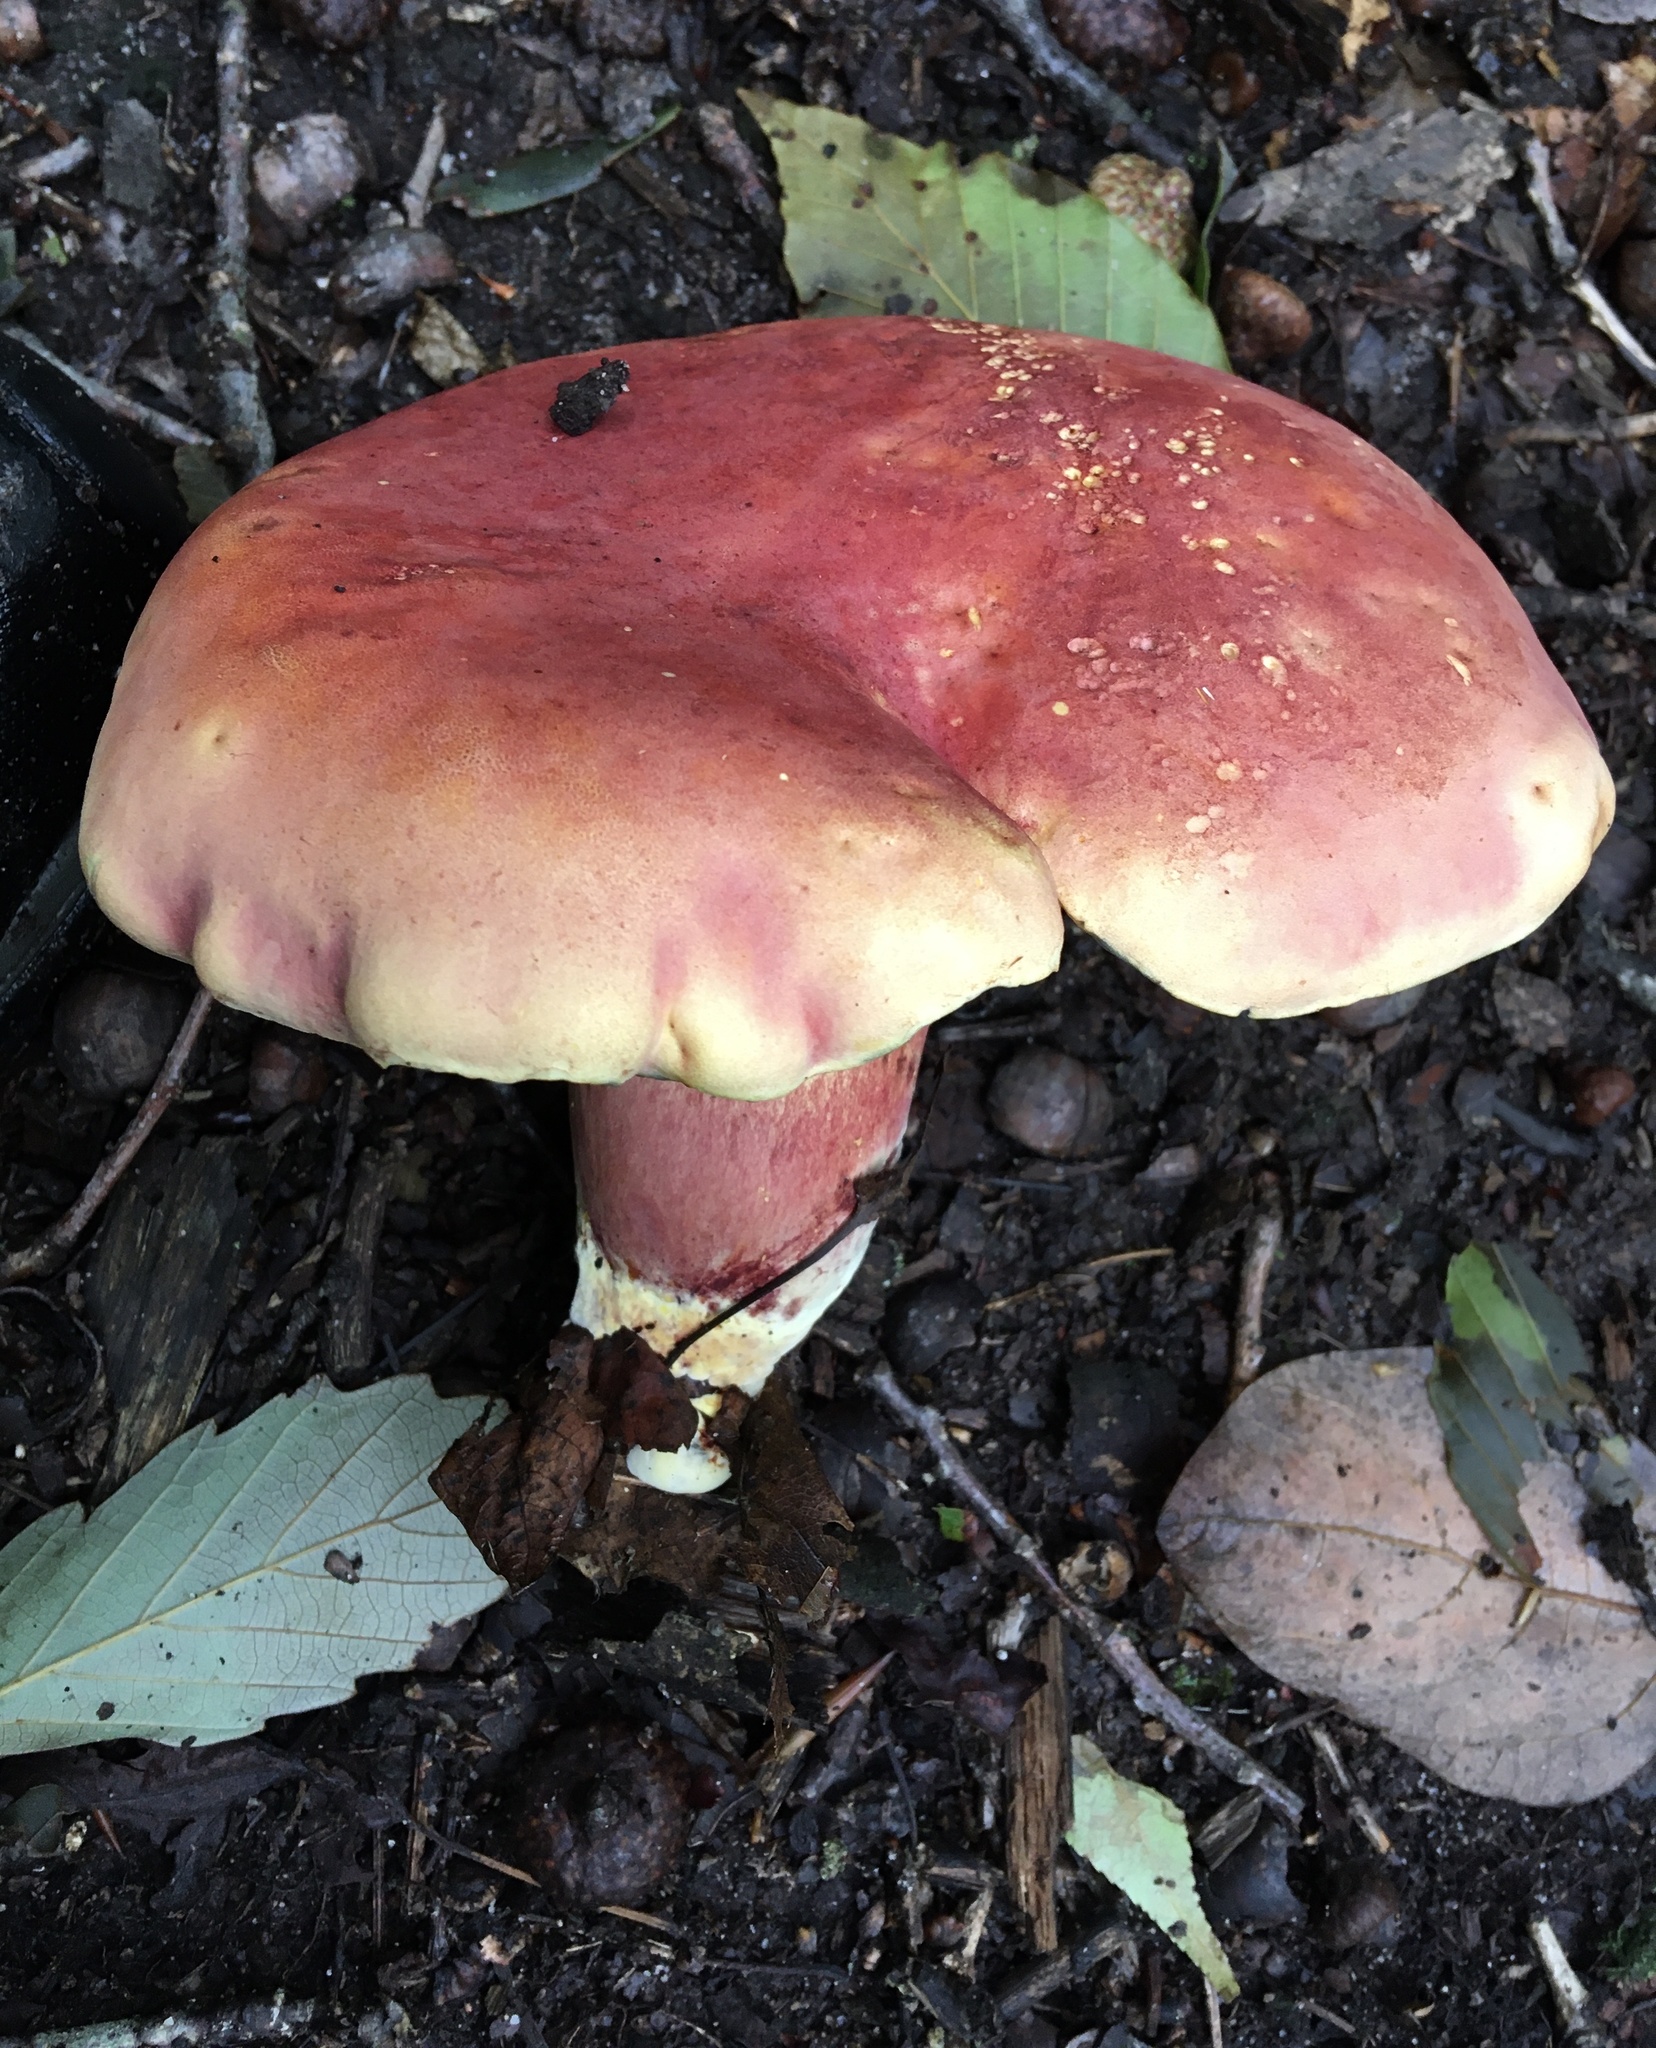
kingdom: Fungi
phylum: Basidiomycota
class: Agaricomycetes
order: Boletales
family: Boletaceae
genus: Boletus
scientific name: Boletus sensibilis
